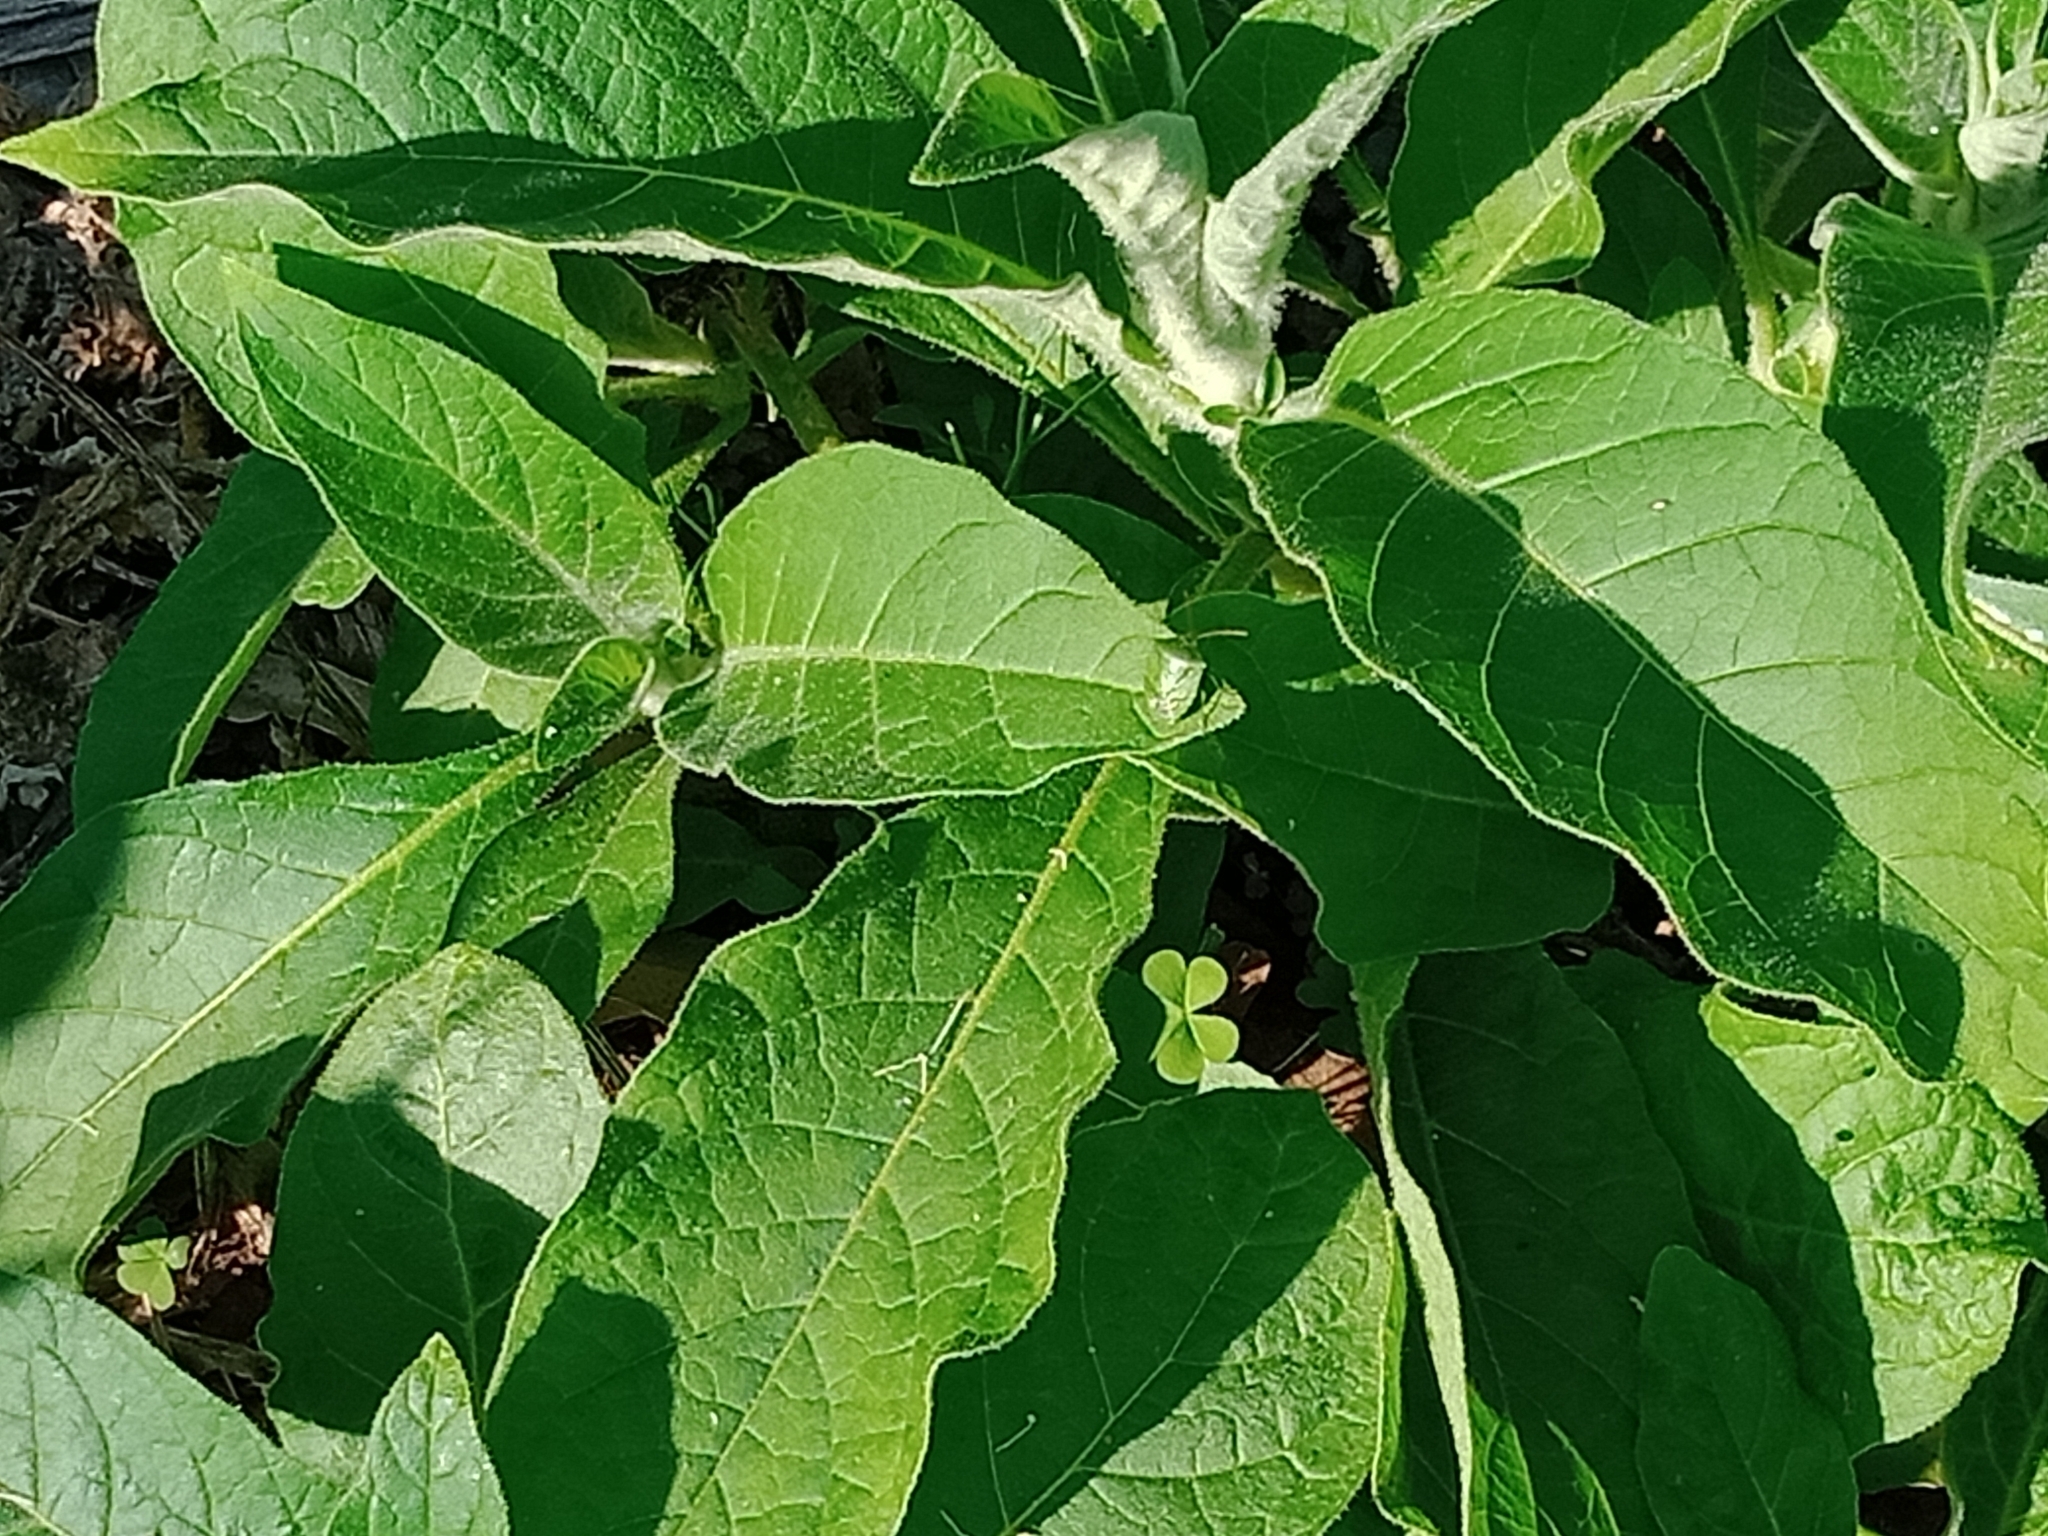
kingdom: Plantae
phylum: Tracheophyta
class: Magnoliopsida
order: Solanales
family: Solanaceae
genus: Solanum
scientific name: Solanum mauritianum
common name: Earleaf nightshade
